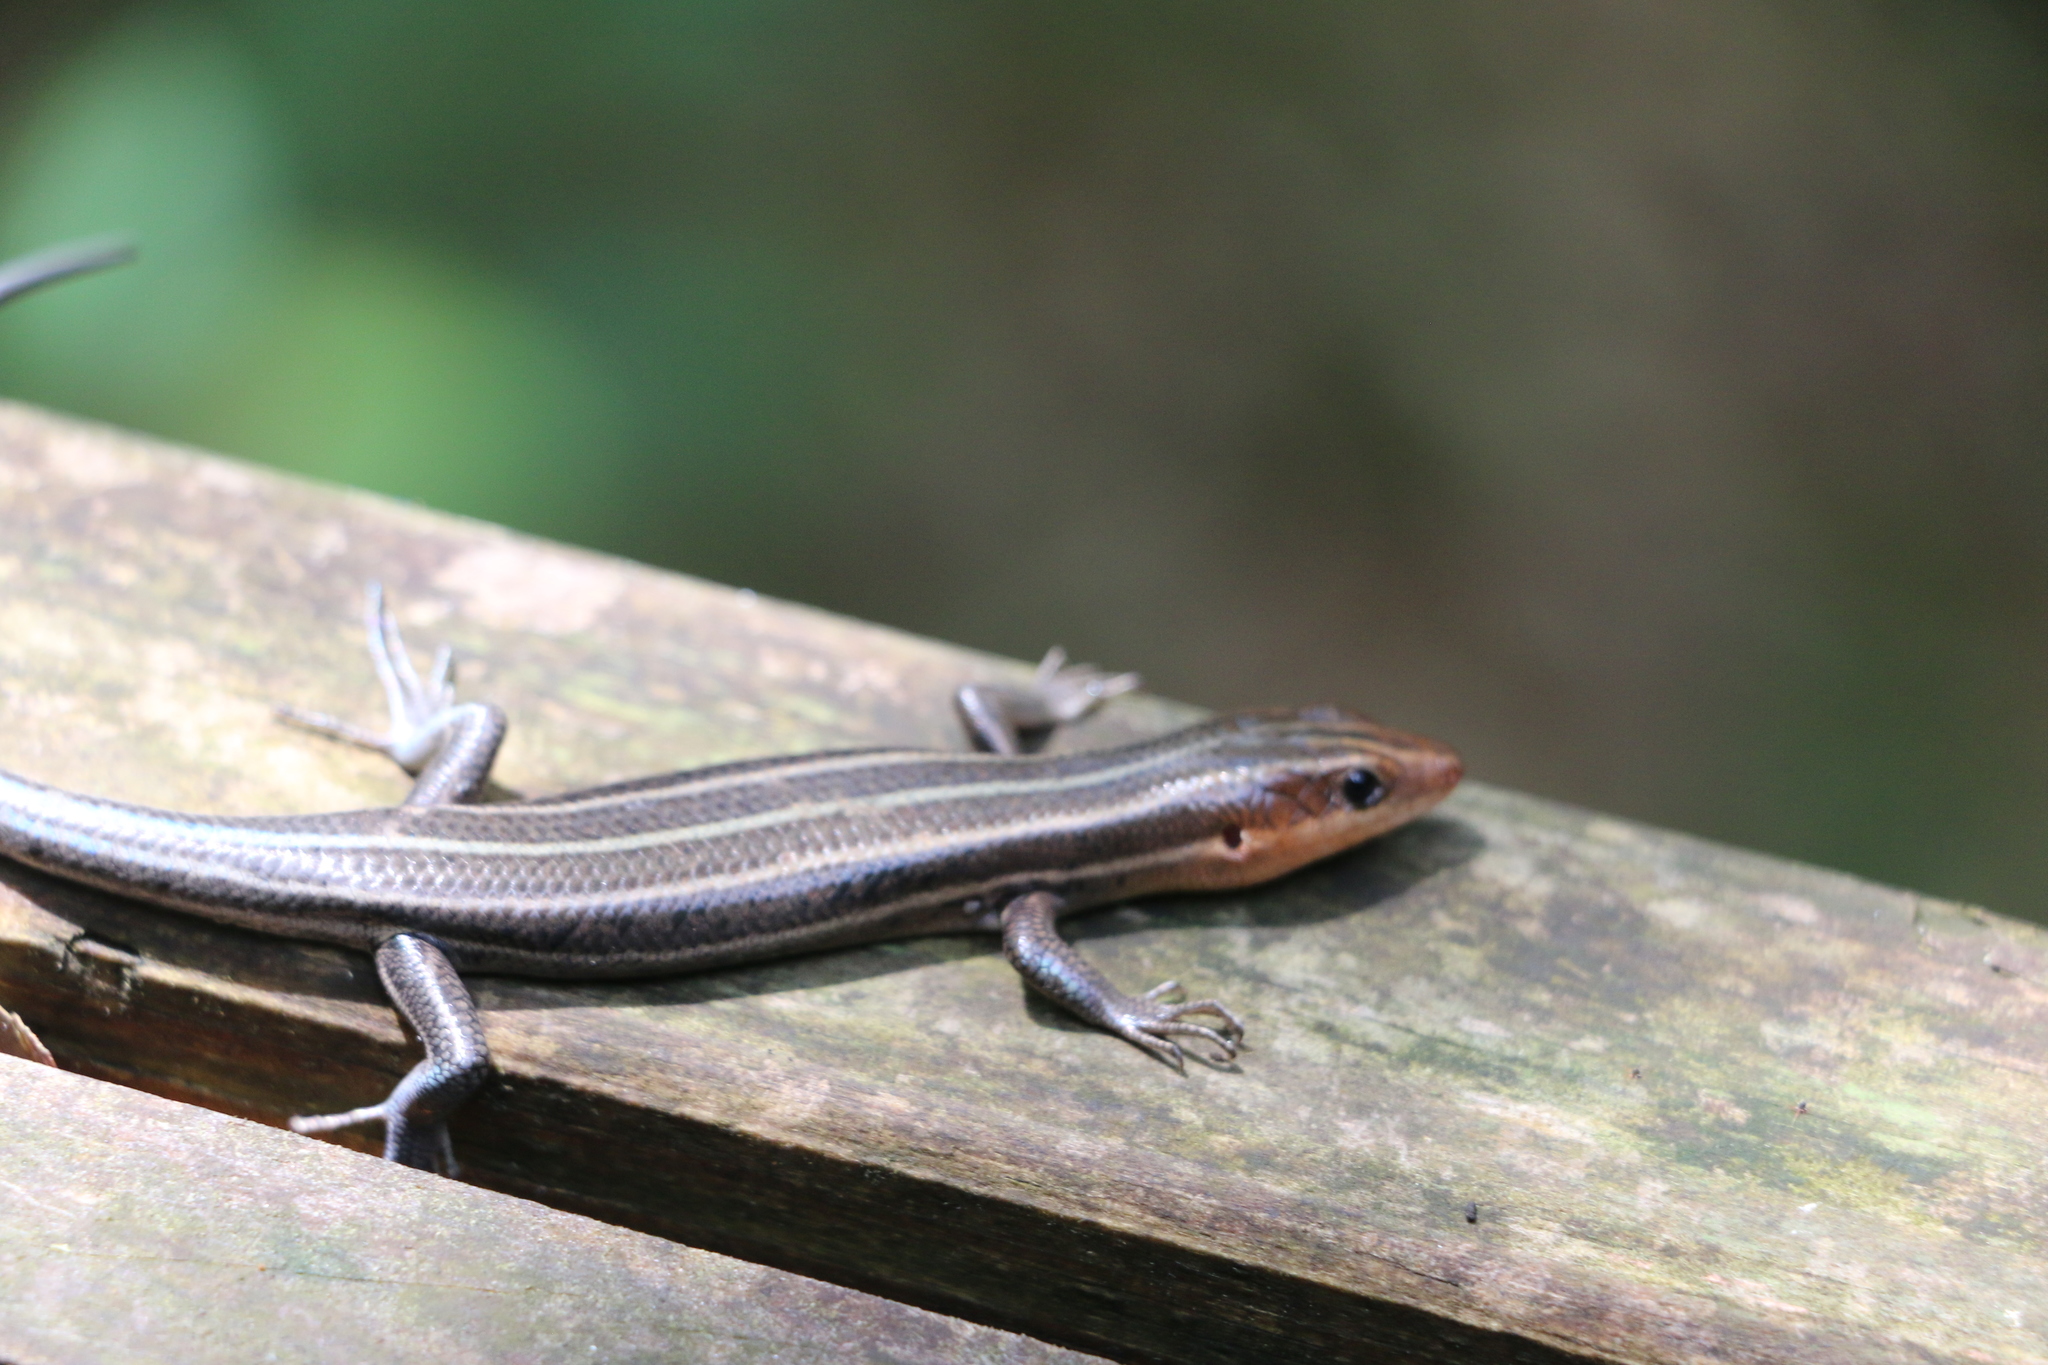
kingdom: Animalia
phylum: Chordata
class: Squamata
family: Scincidae
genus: Plestiodon
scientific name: Plestiodon fasciatus
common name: Five-lined skink
